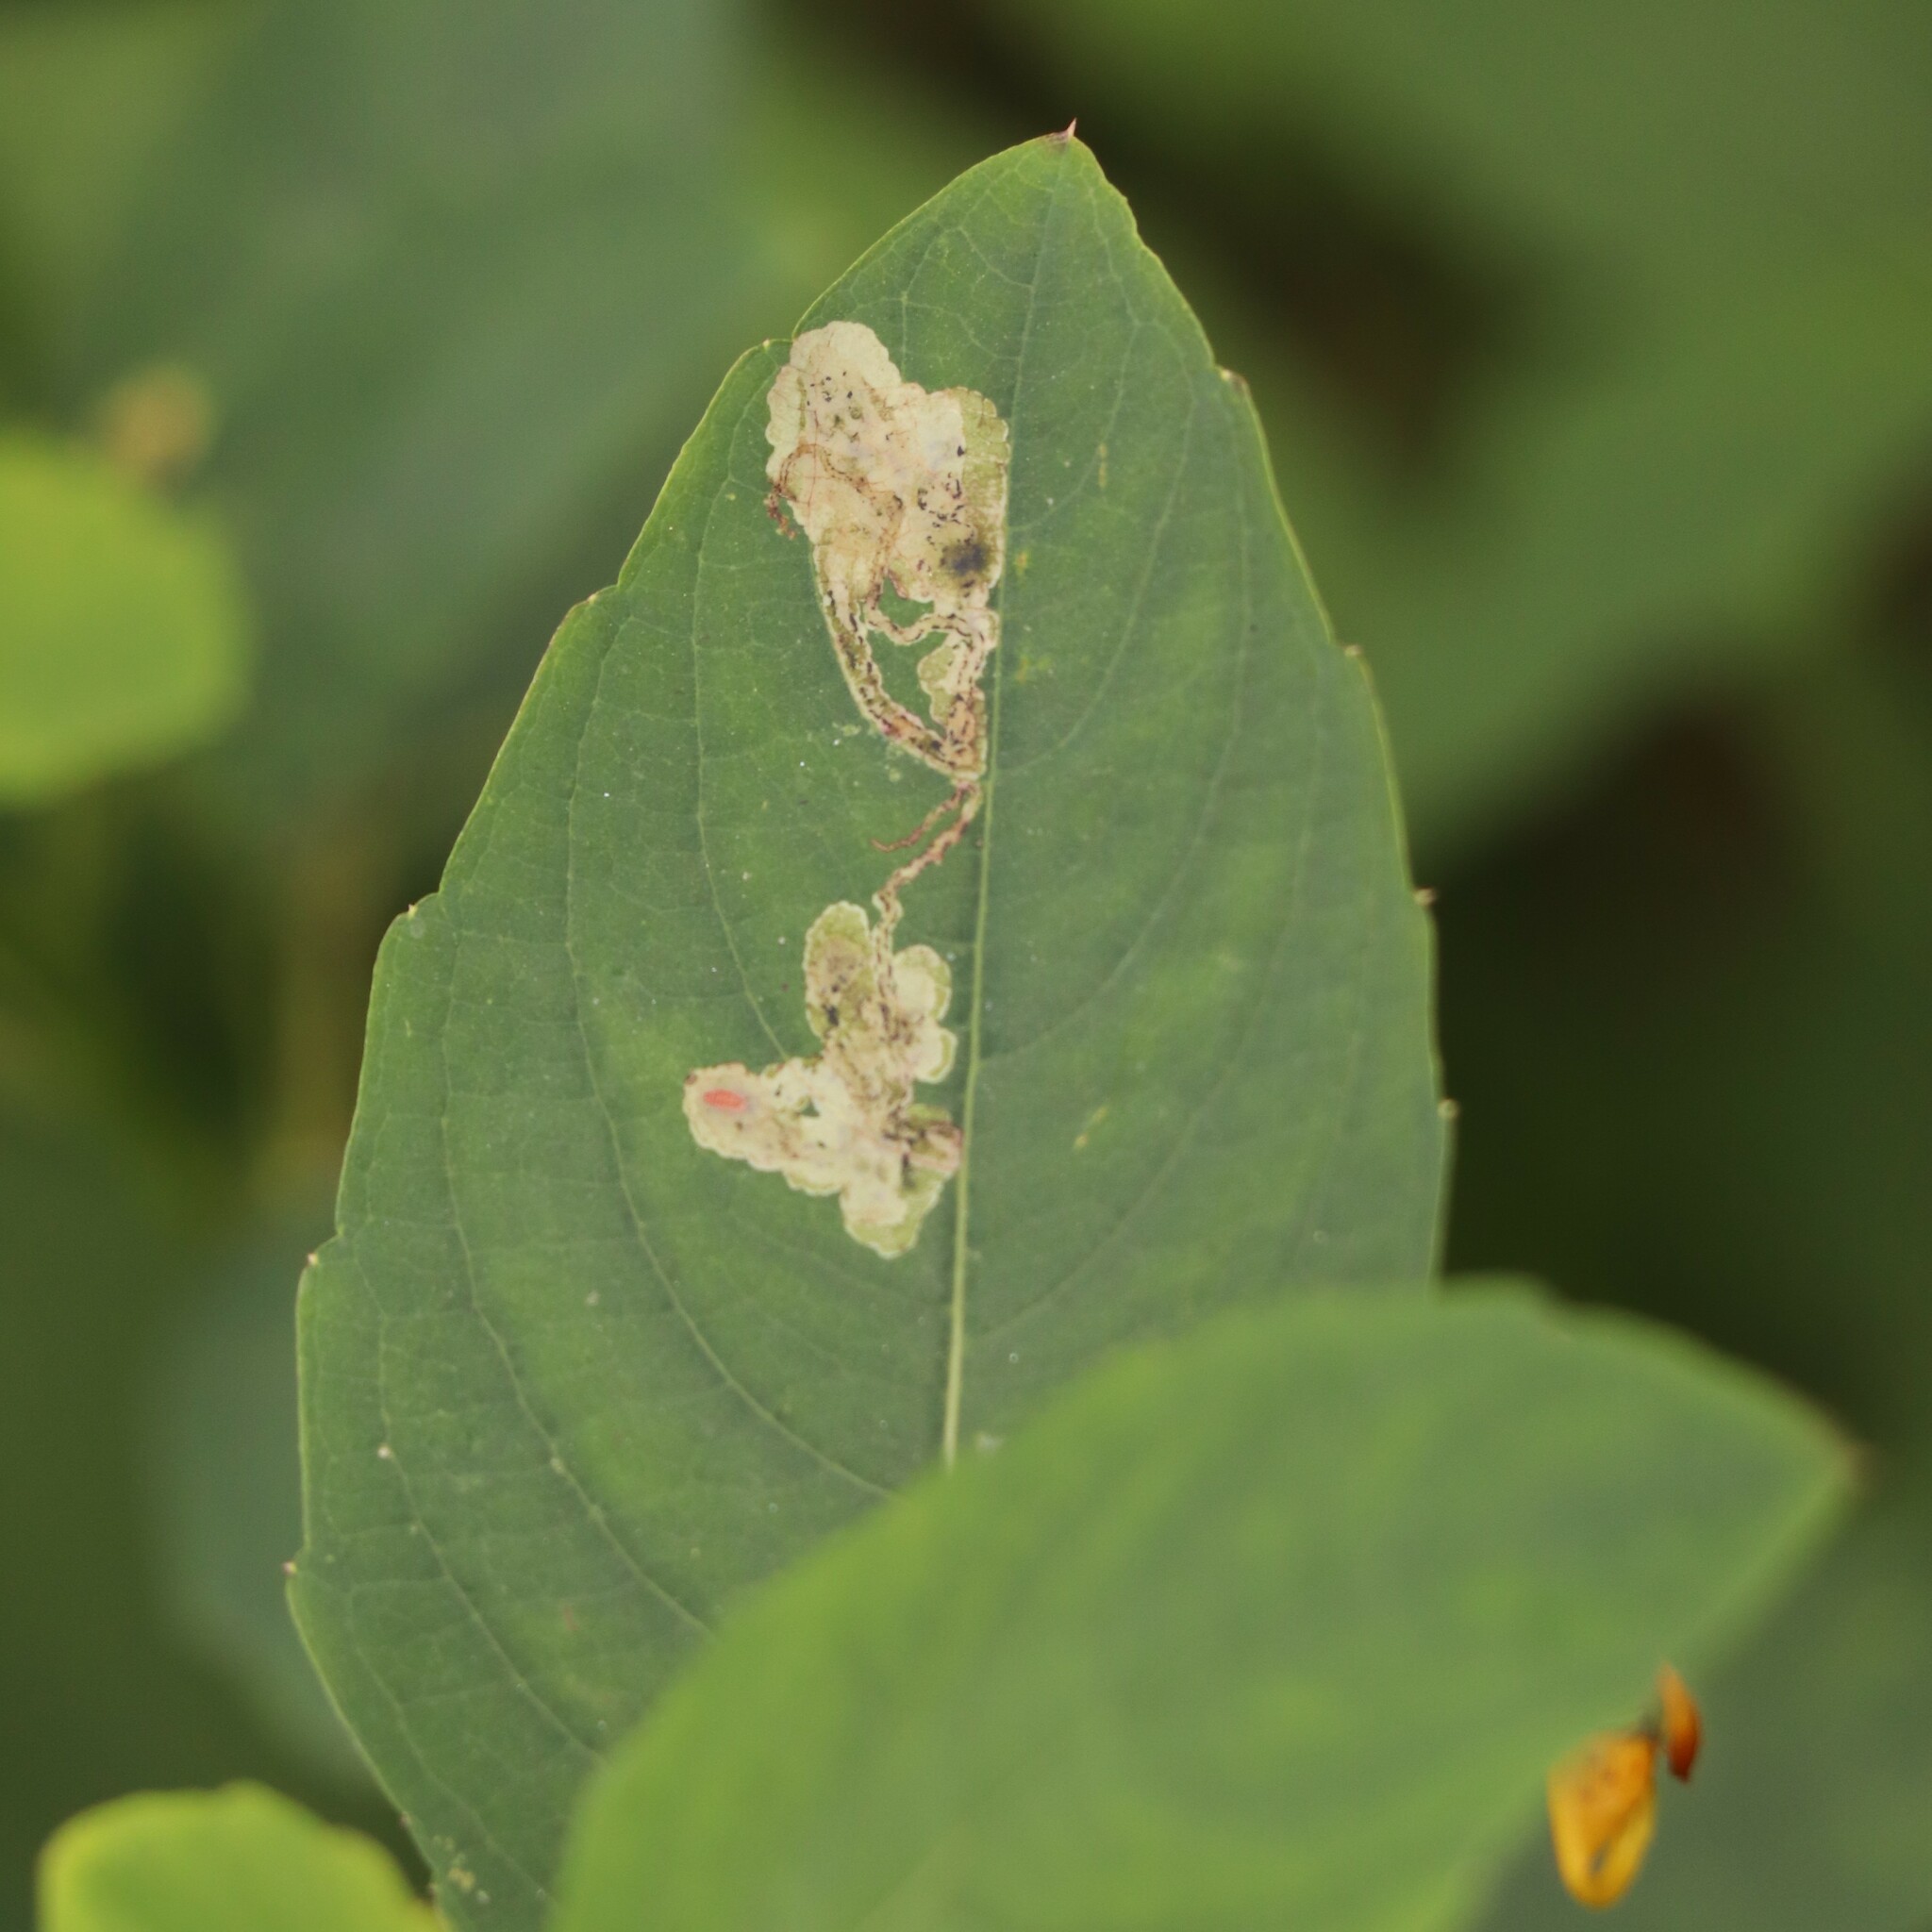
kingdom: Animalia
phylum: Arthropoda
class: Insecta
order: Diptera
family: Agromyzidae
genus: Phytoliriomyza
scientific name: Phytoliriomyza melampyga
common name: Jewelweed leaf-miner fly
